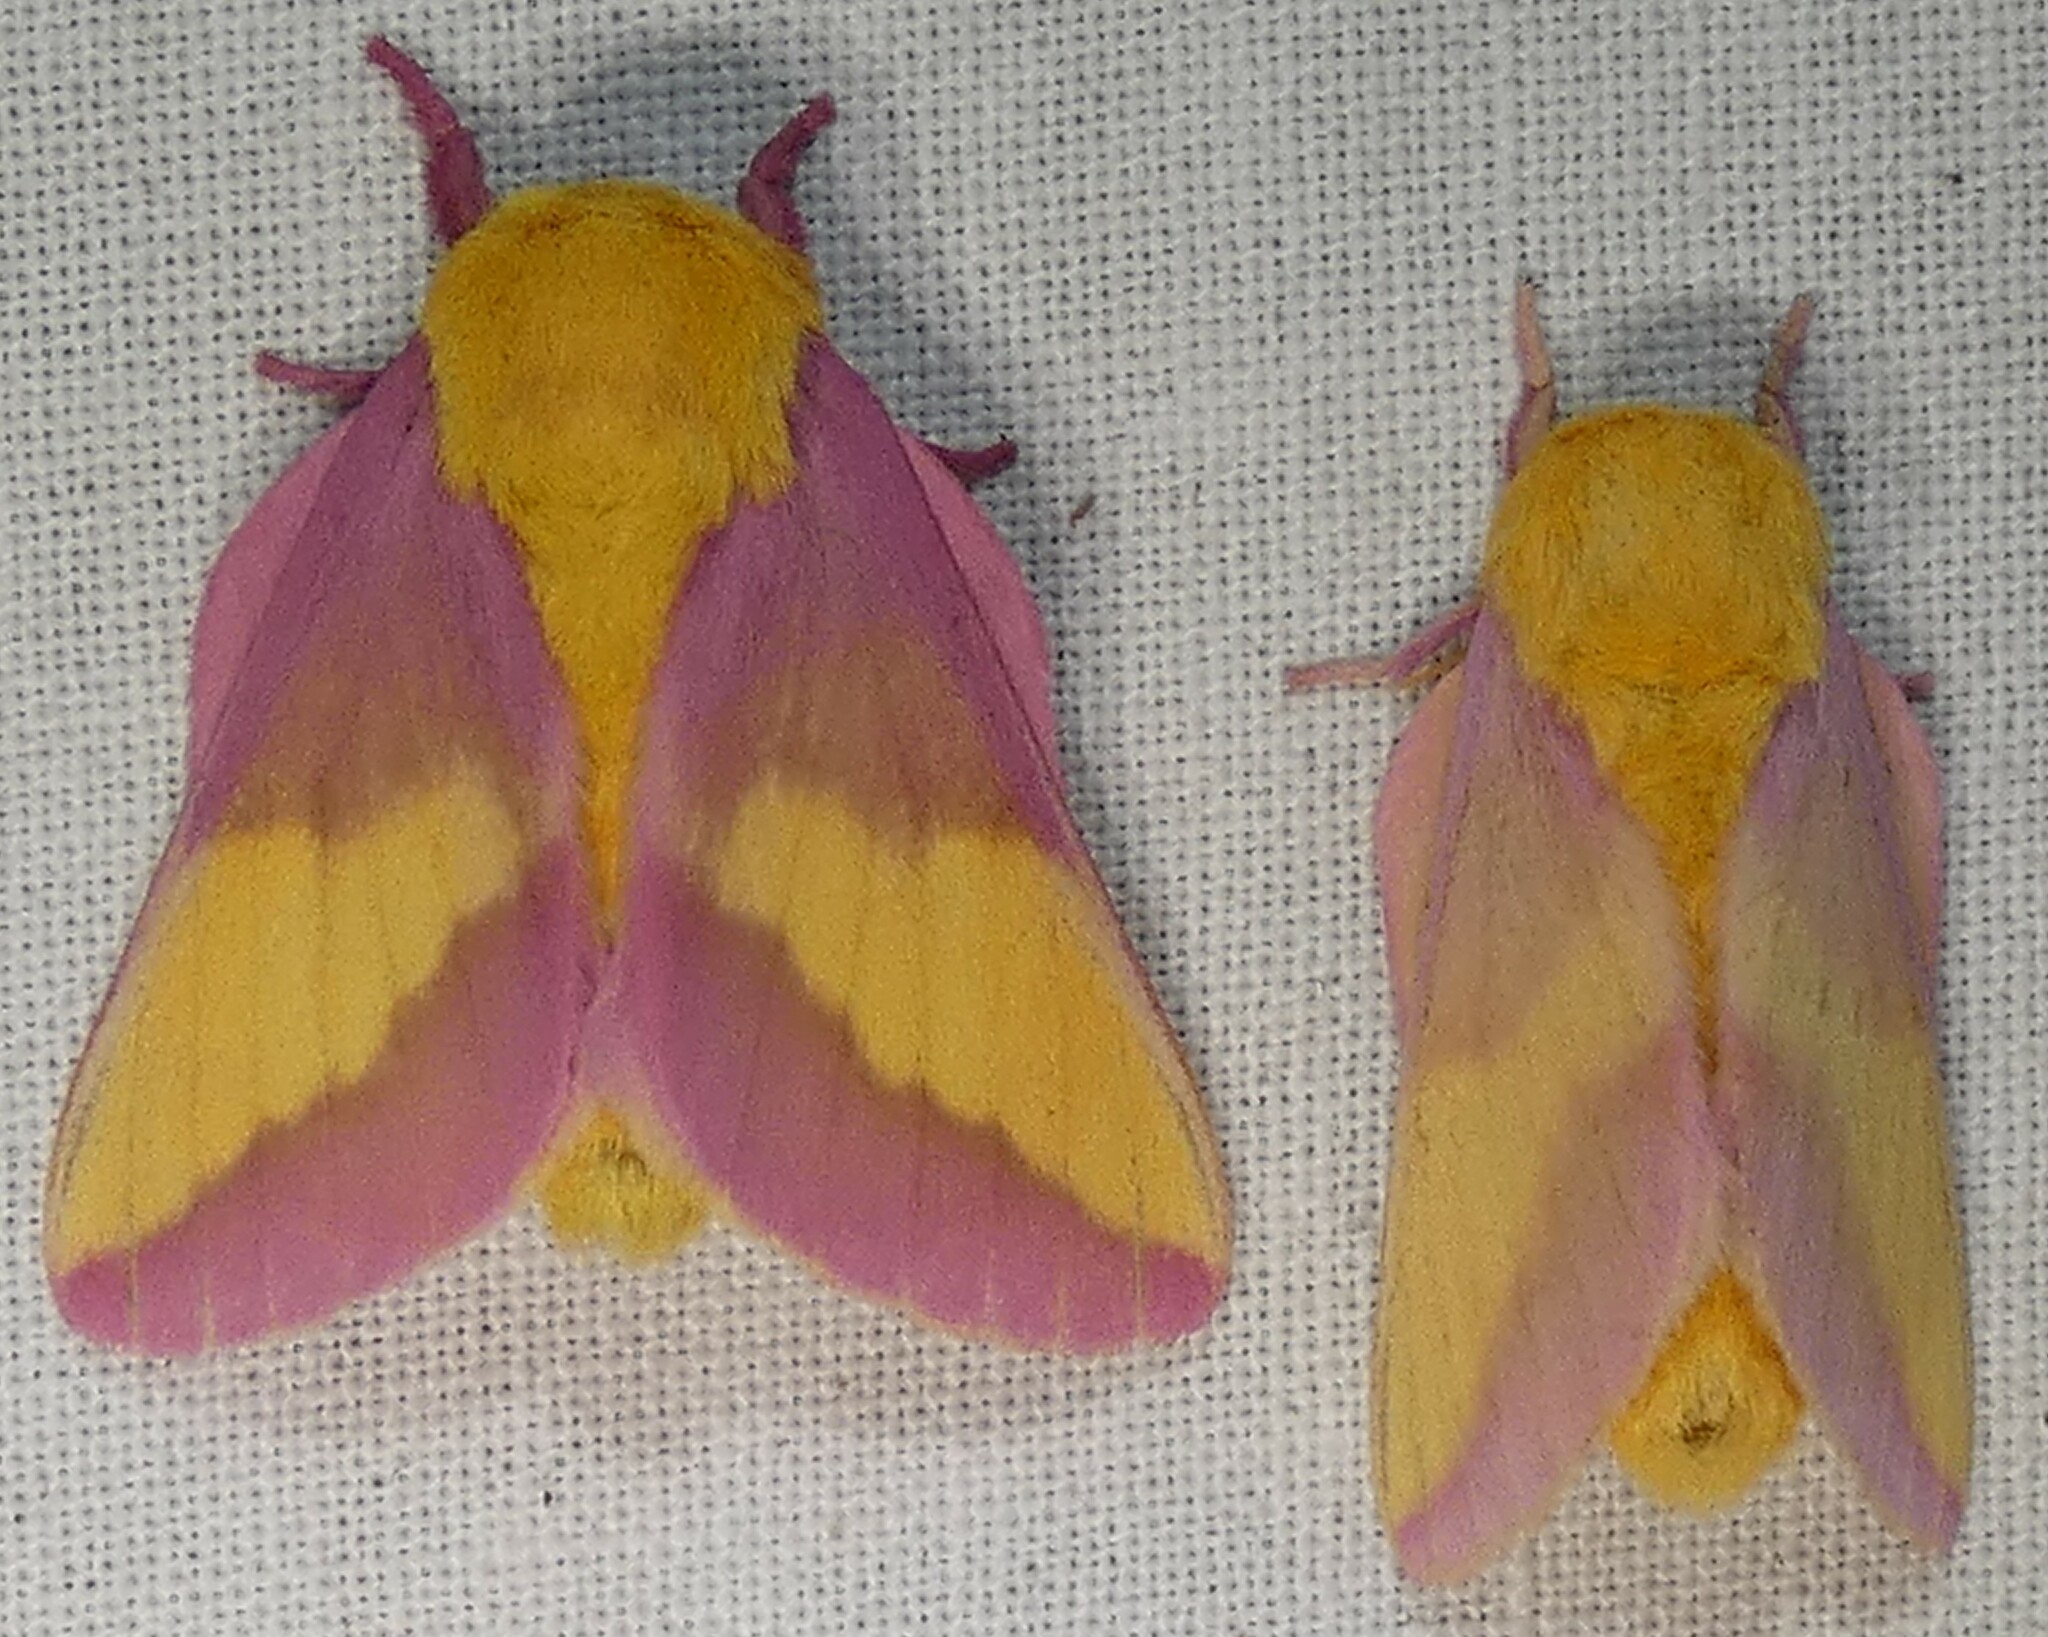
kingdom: Animalia
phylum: Arthropoda
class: Insecta
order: Lepidoptera
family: Saturniidae
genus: Dryocampa
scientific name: Dryocampa rubicunda
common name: Rosy maple moth
